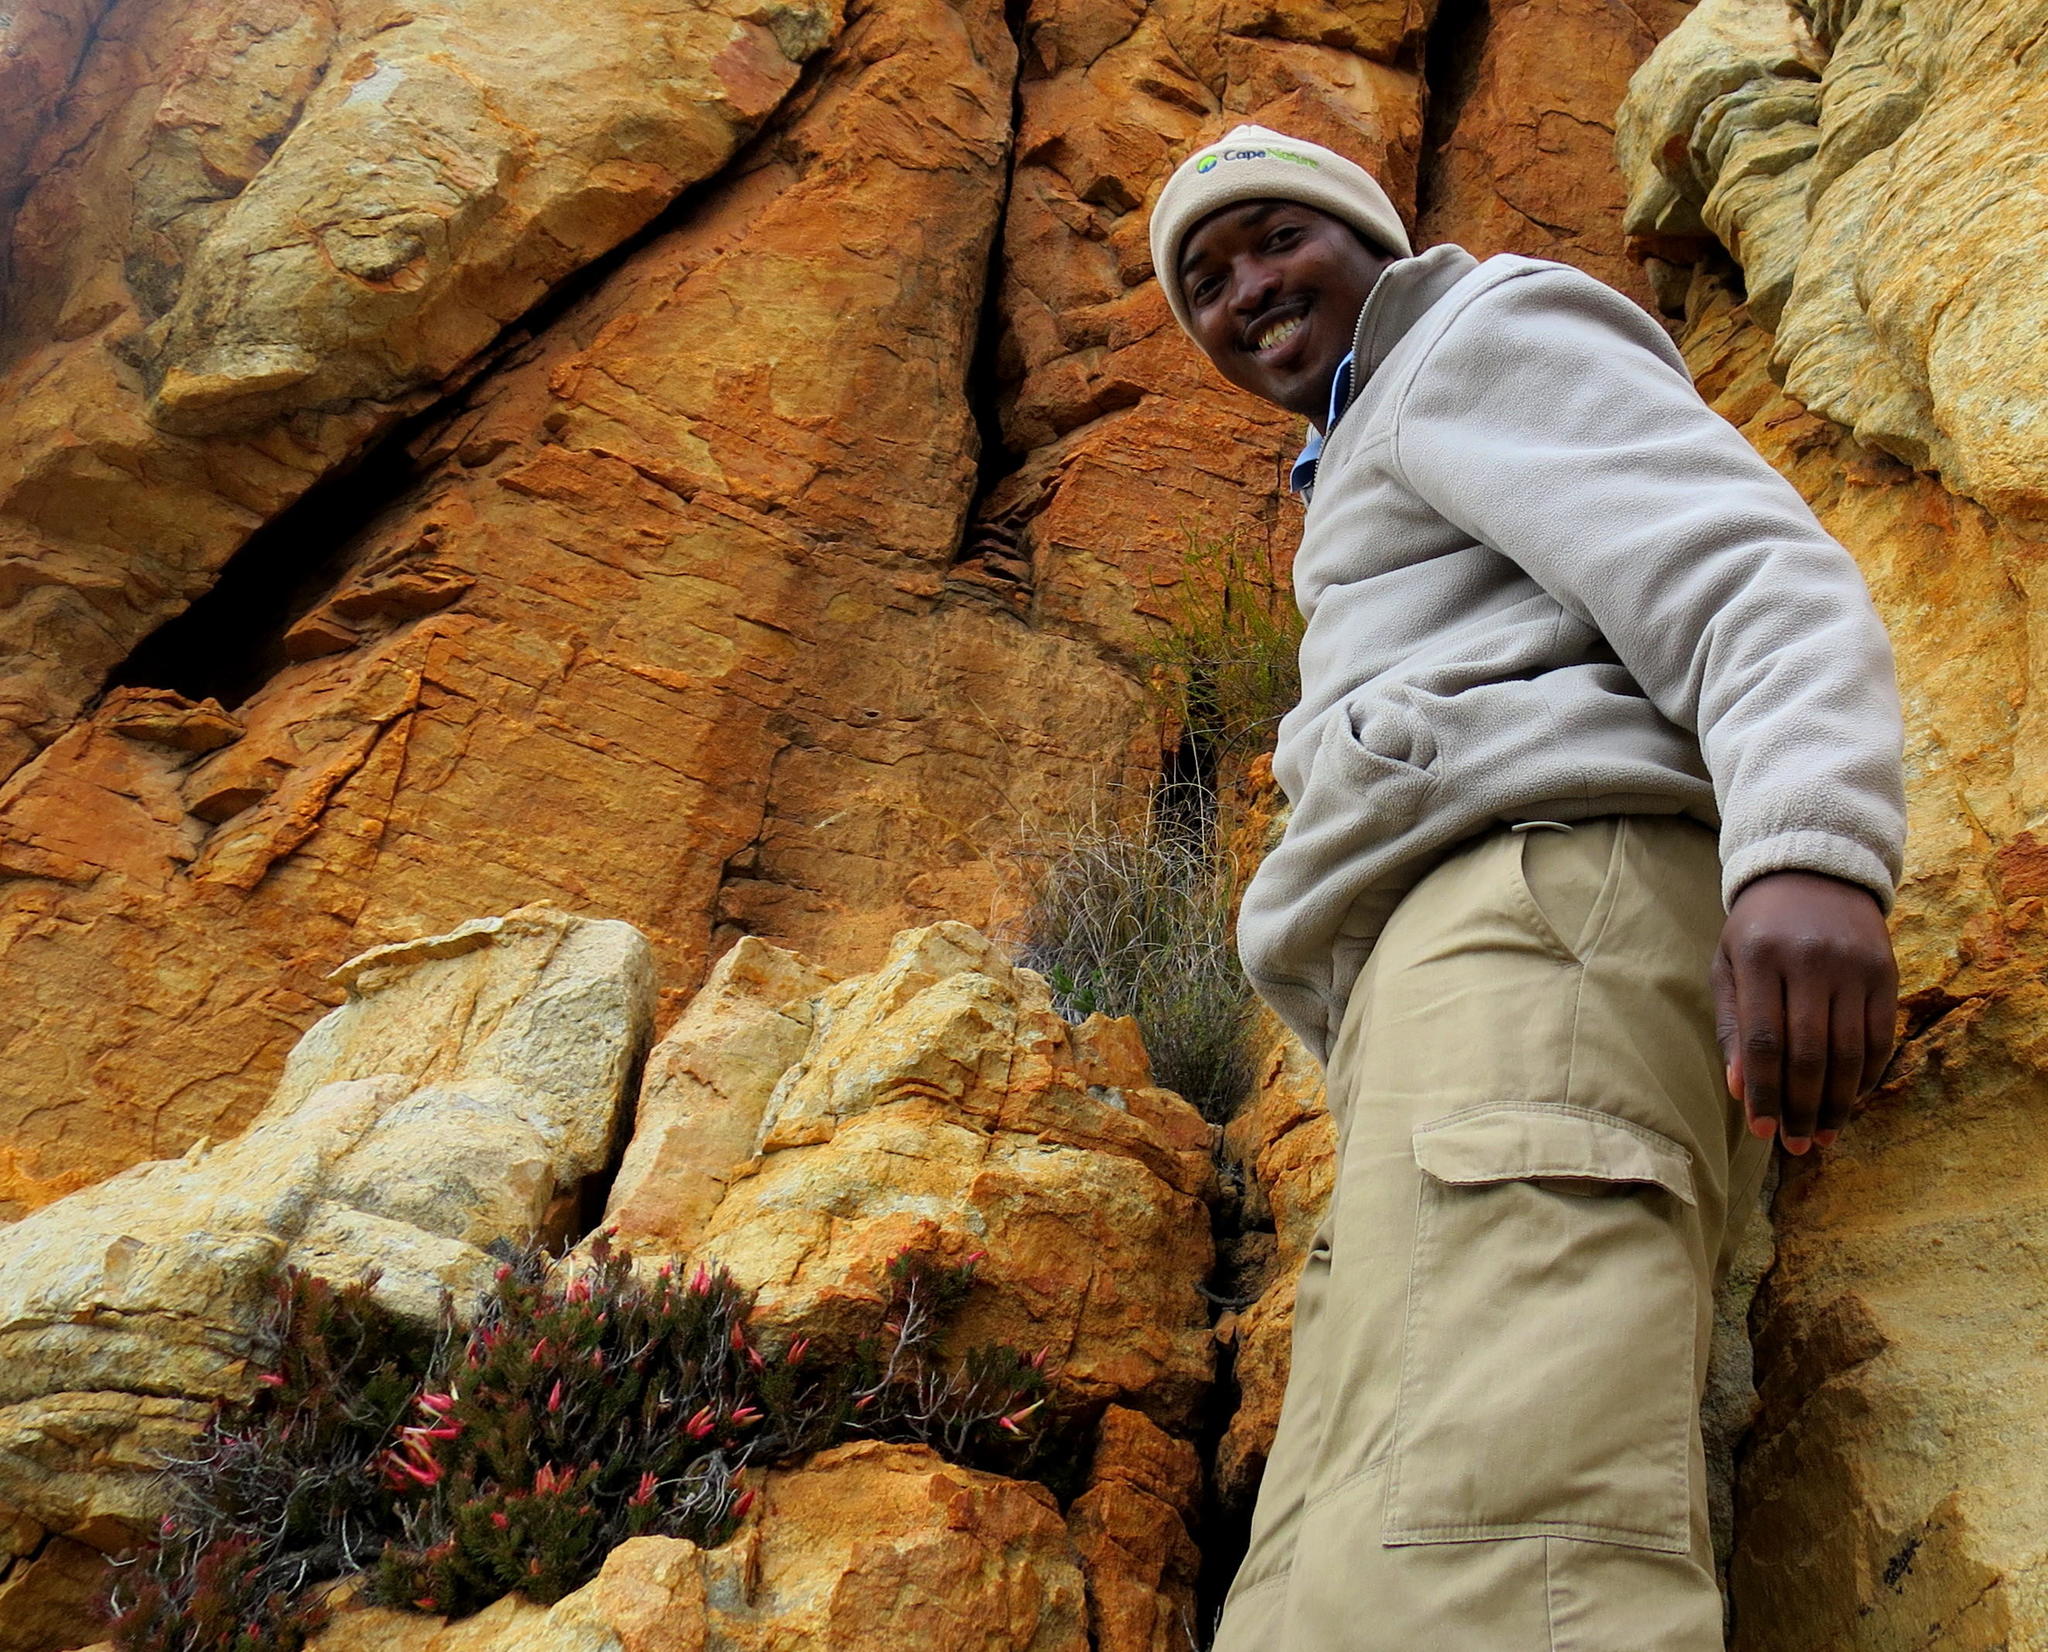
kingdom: Plantae
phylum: Tracheophyta
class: Magnoliopsida
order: Ericales
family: Ericaceae
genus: Erica
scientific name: Erica insignis
